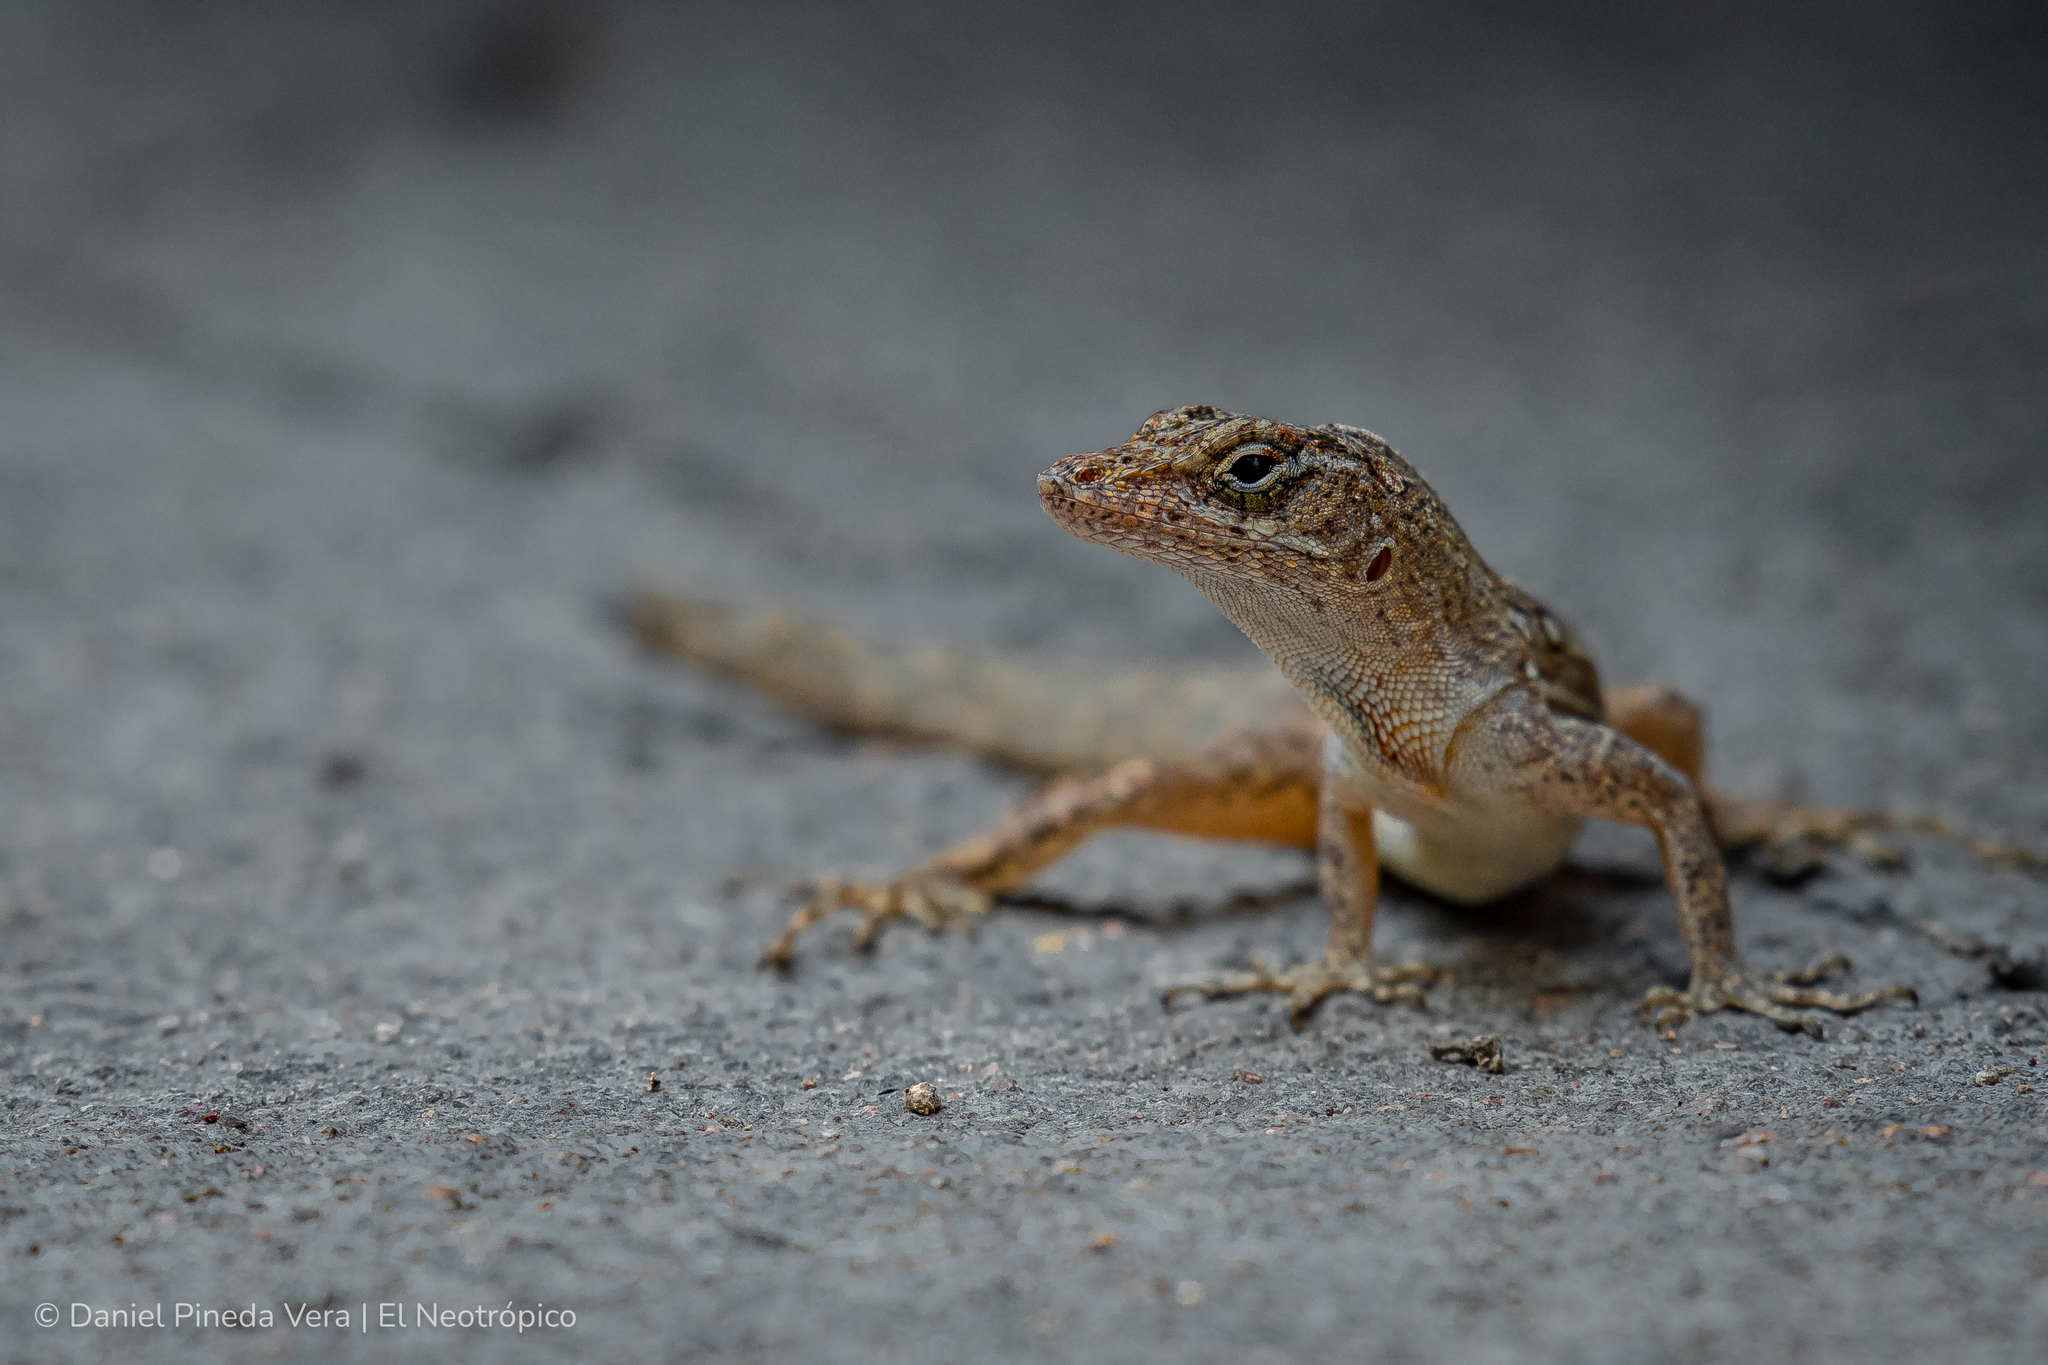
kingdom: Animalia
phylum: Chordata
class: Squamata
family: Dactyloidae
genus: Anolis
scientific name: Anolis sagrei
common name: Brown anole
